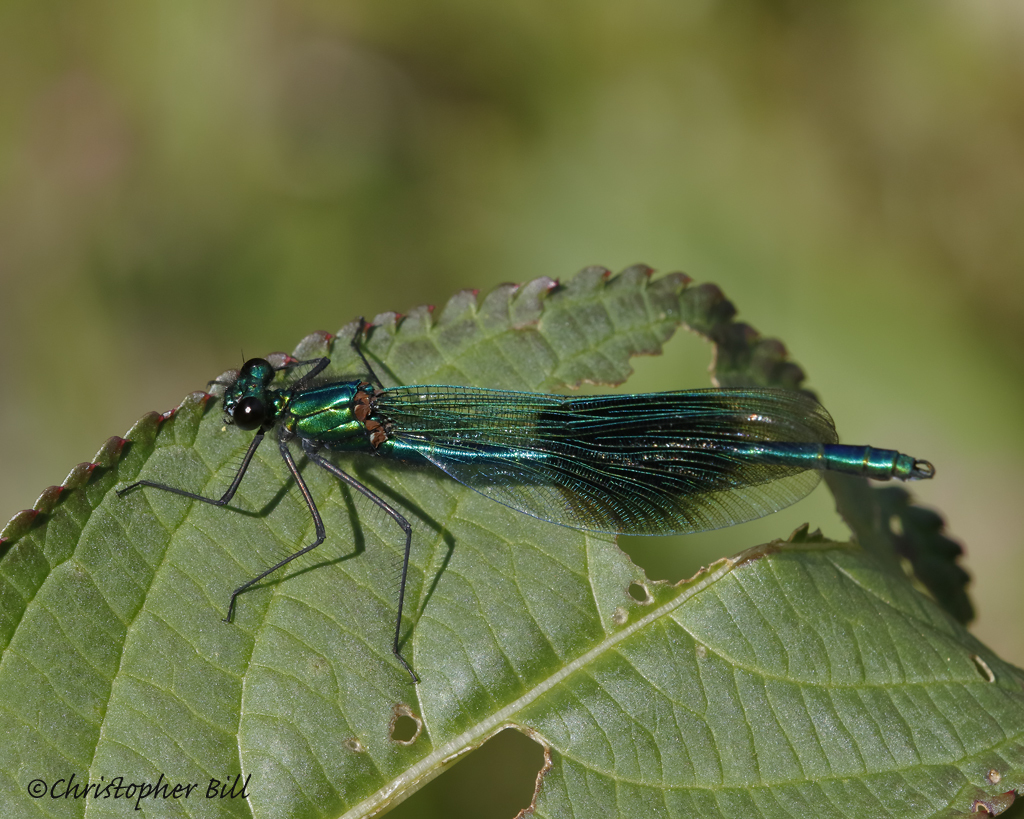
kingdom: Animalia
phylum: Arthropoda
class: Insecta
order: Odonata
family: Calopterygidae
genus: Calopteryx
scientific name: Calopteryx splendens
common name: Banded demoiselle
